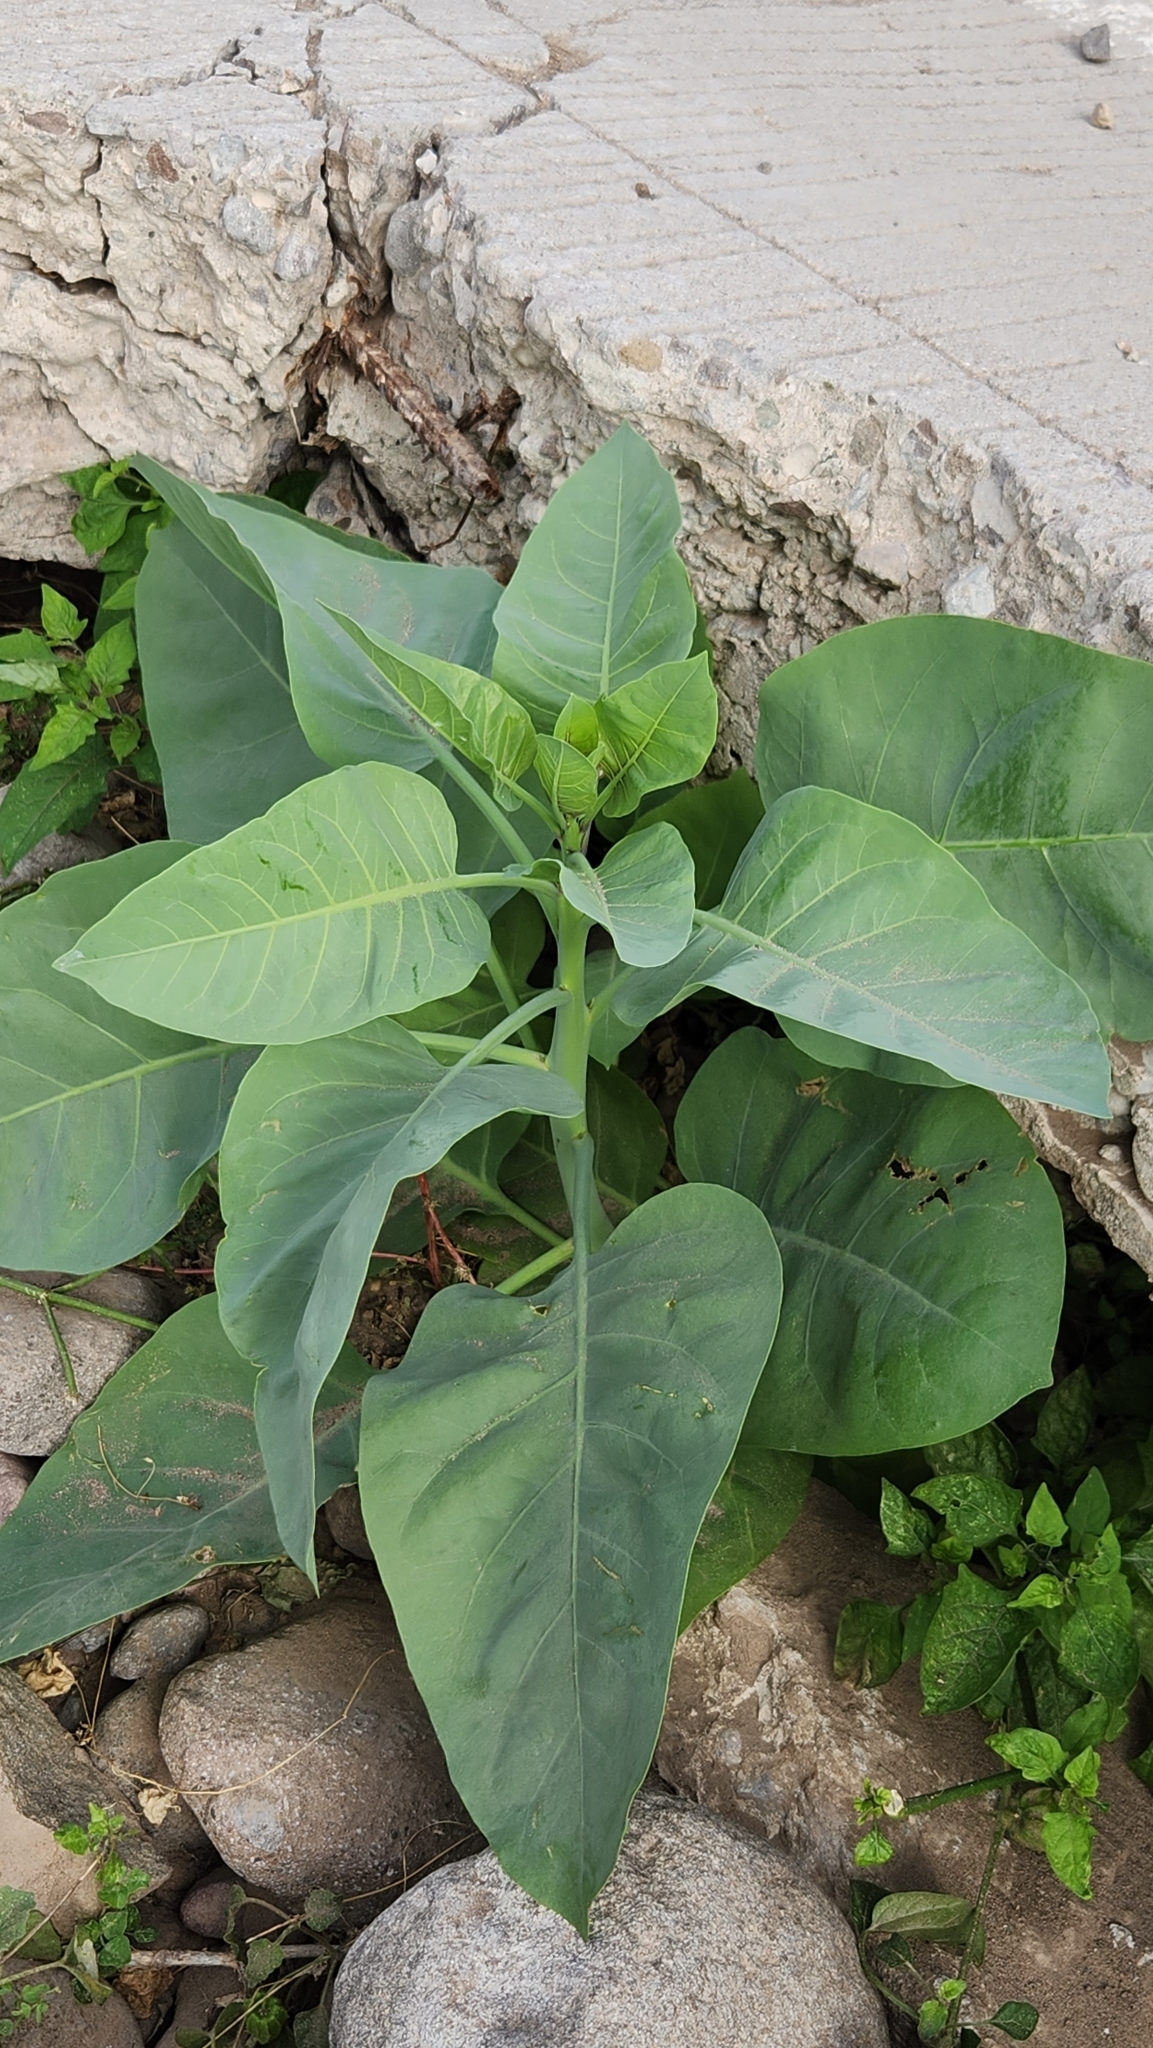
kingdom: Plantae
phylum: Tracheophyta
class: Magnoliopsida
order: Solanales
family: Solanaceae
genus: Nicotiana
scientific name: Nicotiana glauca
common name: Tree tobacco
